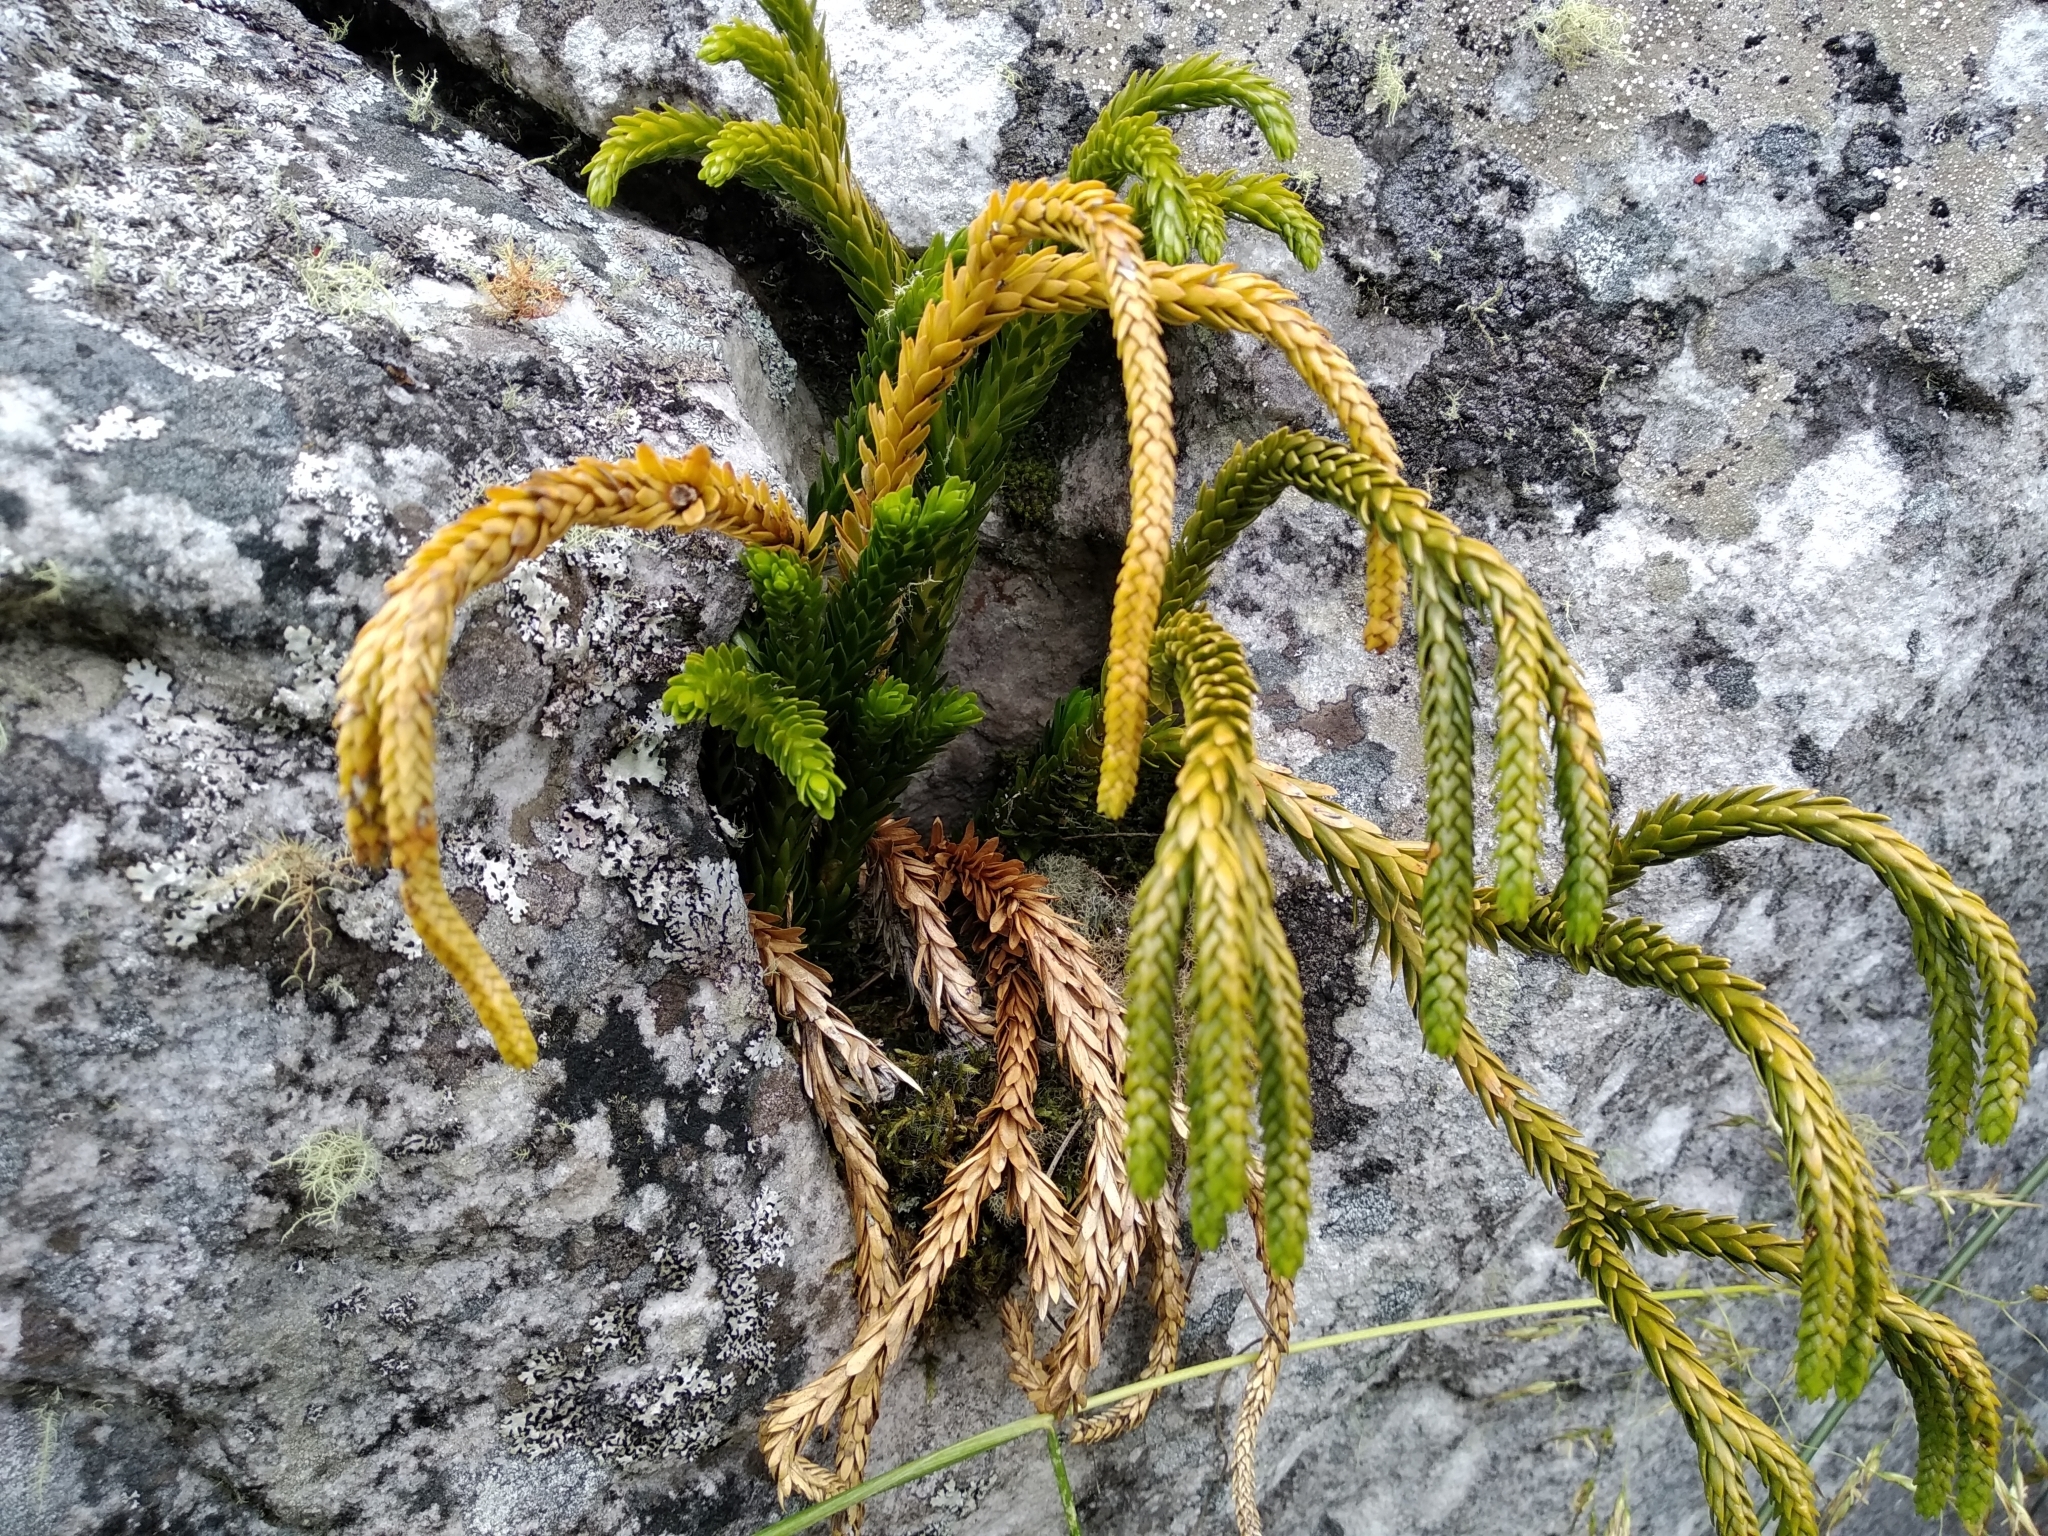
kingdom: Plantae
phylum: Tracheophyta
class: Lycopodiopsida
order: Lycopodiales
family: Lycopodiaceae
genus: Phlegmariurus
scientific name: Phlegmariurus gnidioides
